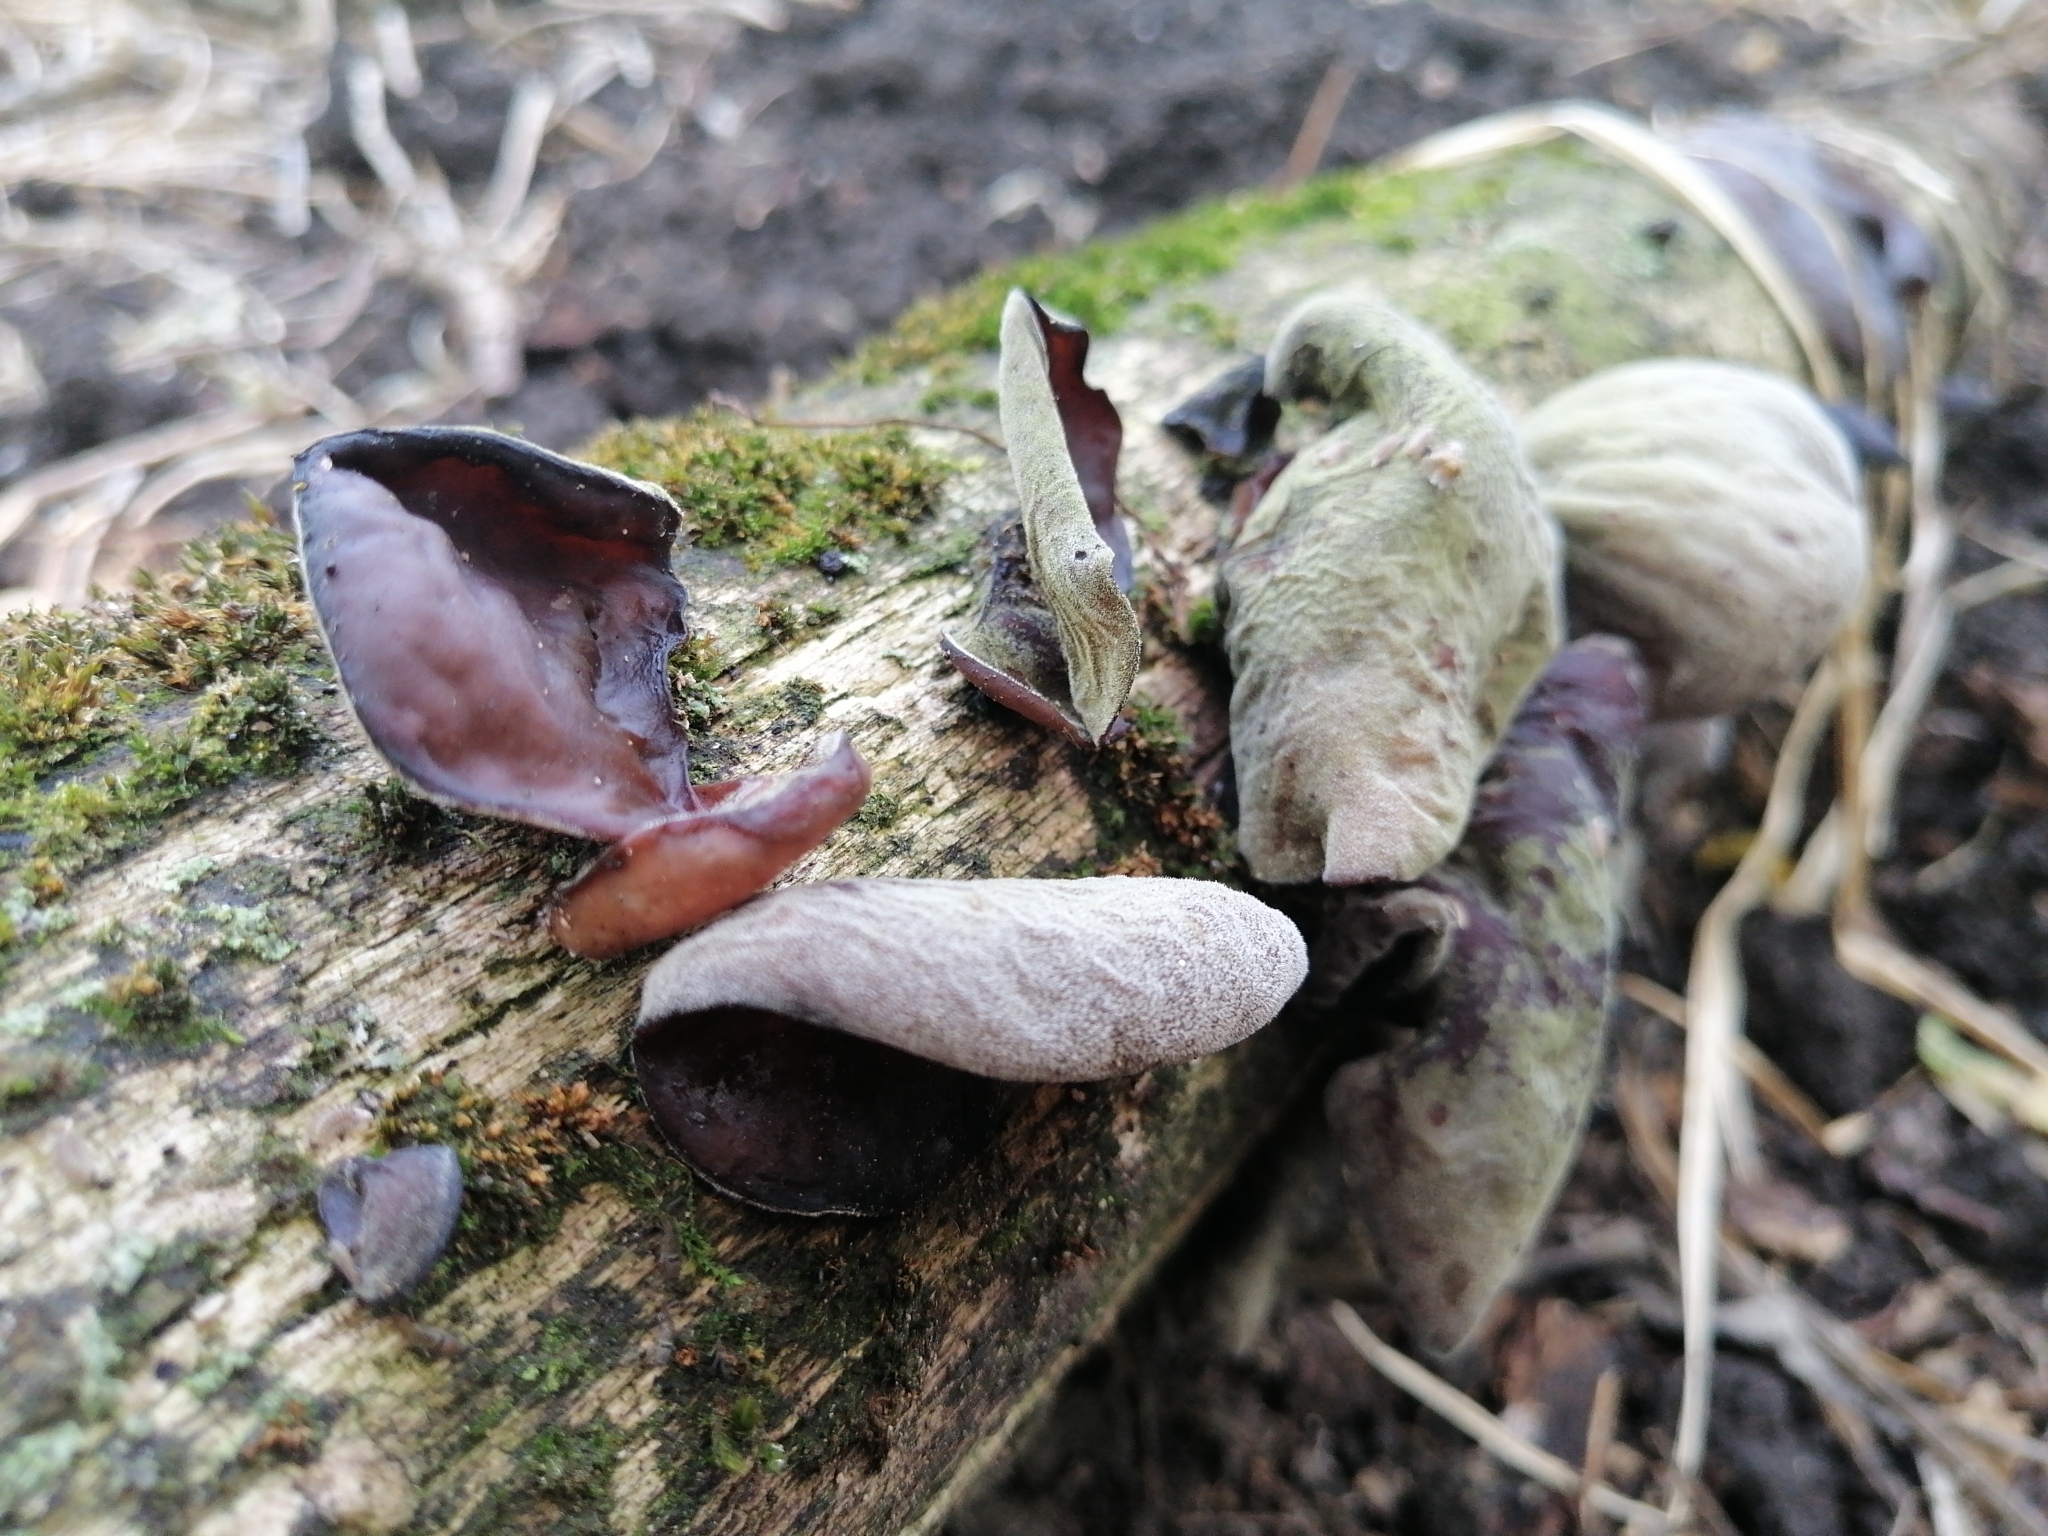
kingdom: Fungi
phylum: Basidiomycota
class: Agaricomycetes
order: Auriculariales
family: Auriculariaceae
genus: Auricularia
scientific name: Auricularia auricula-judae
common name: Jelly ear
